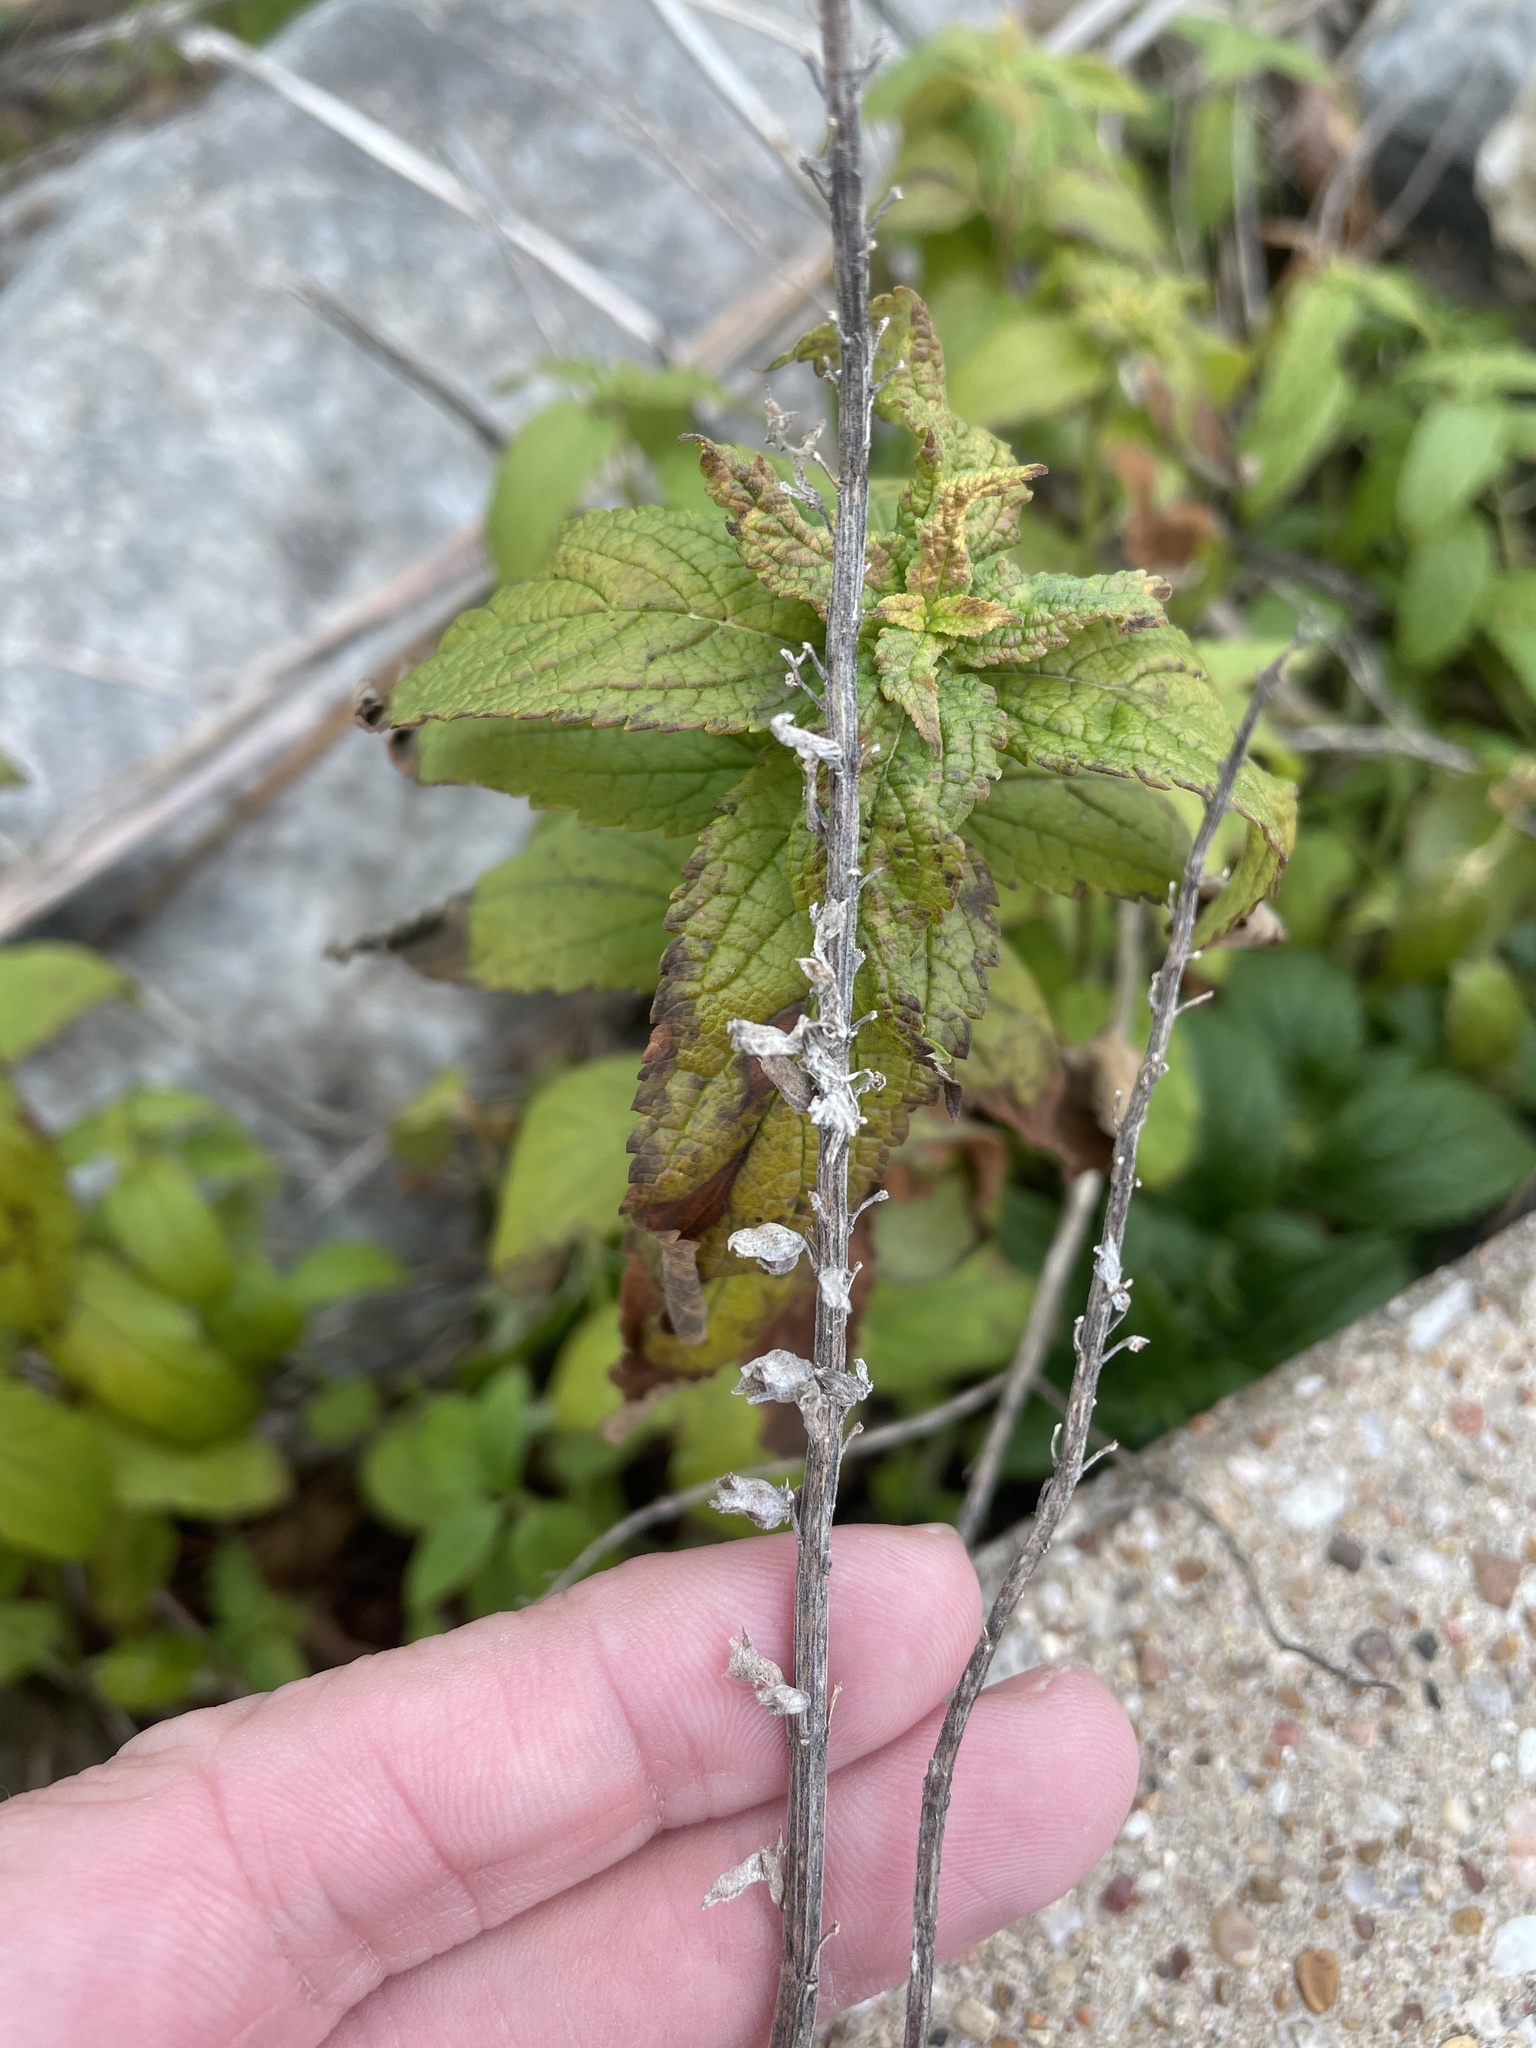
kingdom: Plantae
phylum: Tracheophyta
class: Magnoliopsida
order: Lamiales
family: Lamiaceae
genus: Teucrium
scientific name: Teucrium canadense
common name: American germander
